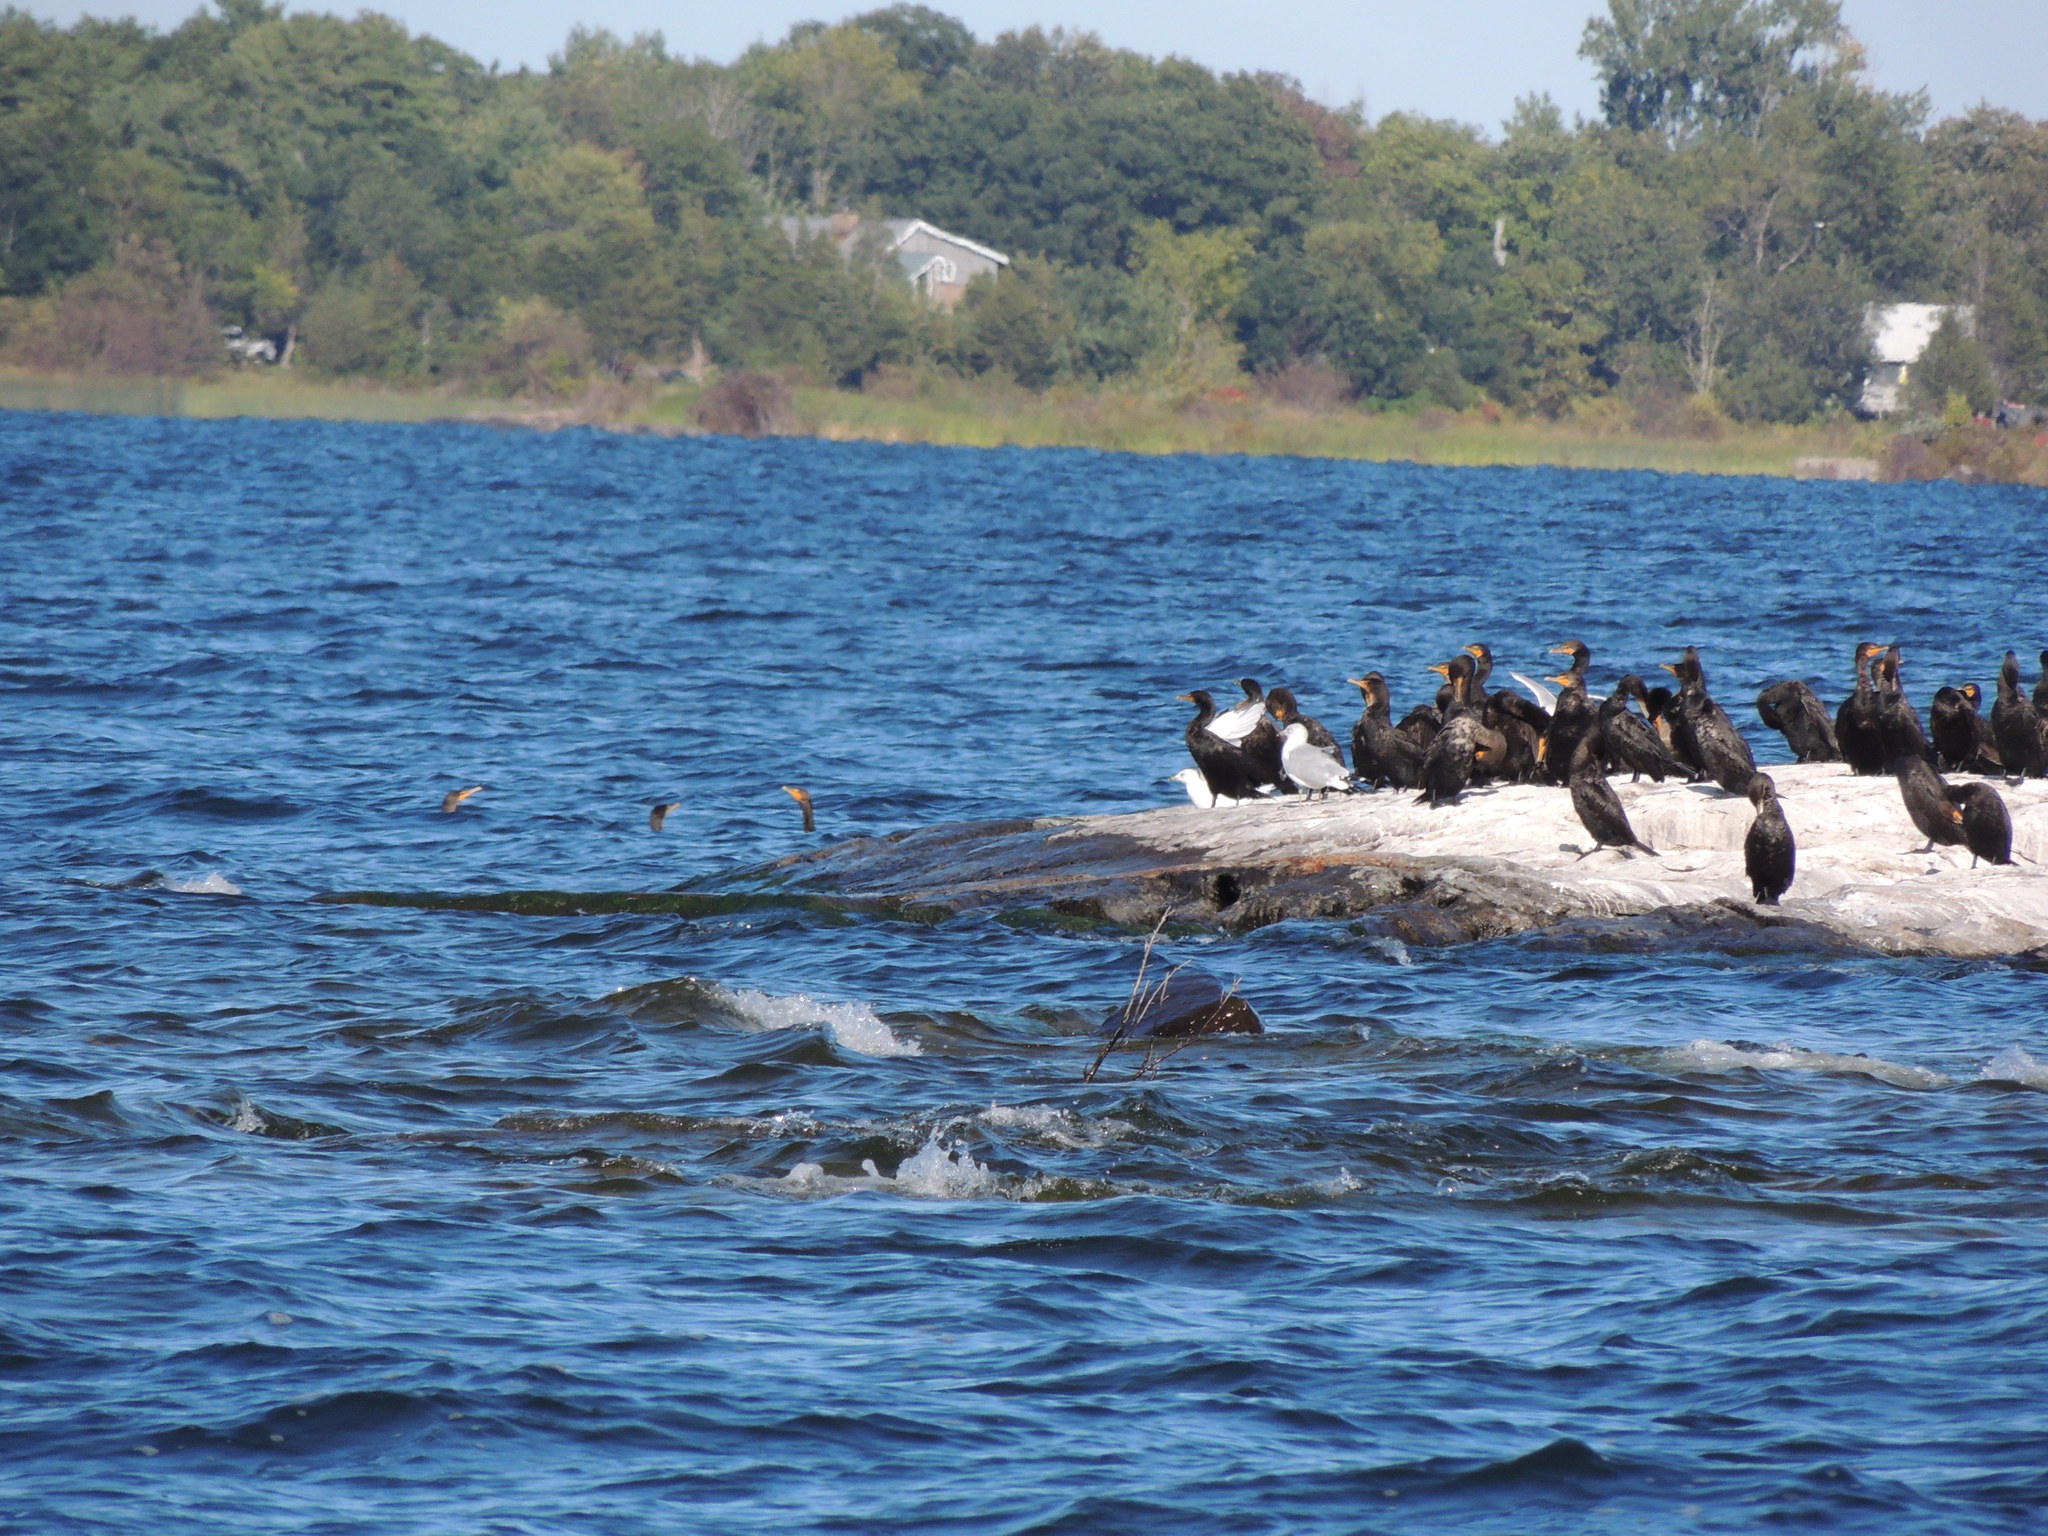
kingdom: Animalia
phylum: Chordata
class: Aves
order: Suliformes
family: Phalacrocoracidae
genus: Phalacrocorax
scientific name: Phalacrocorax auritus
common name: Double-crested cormorant
